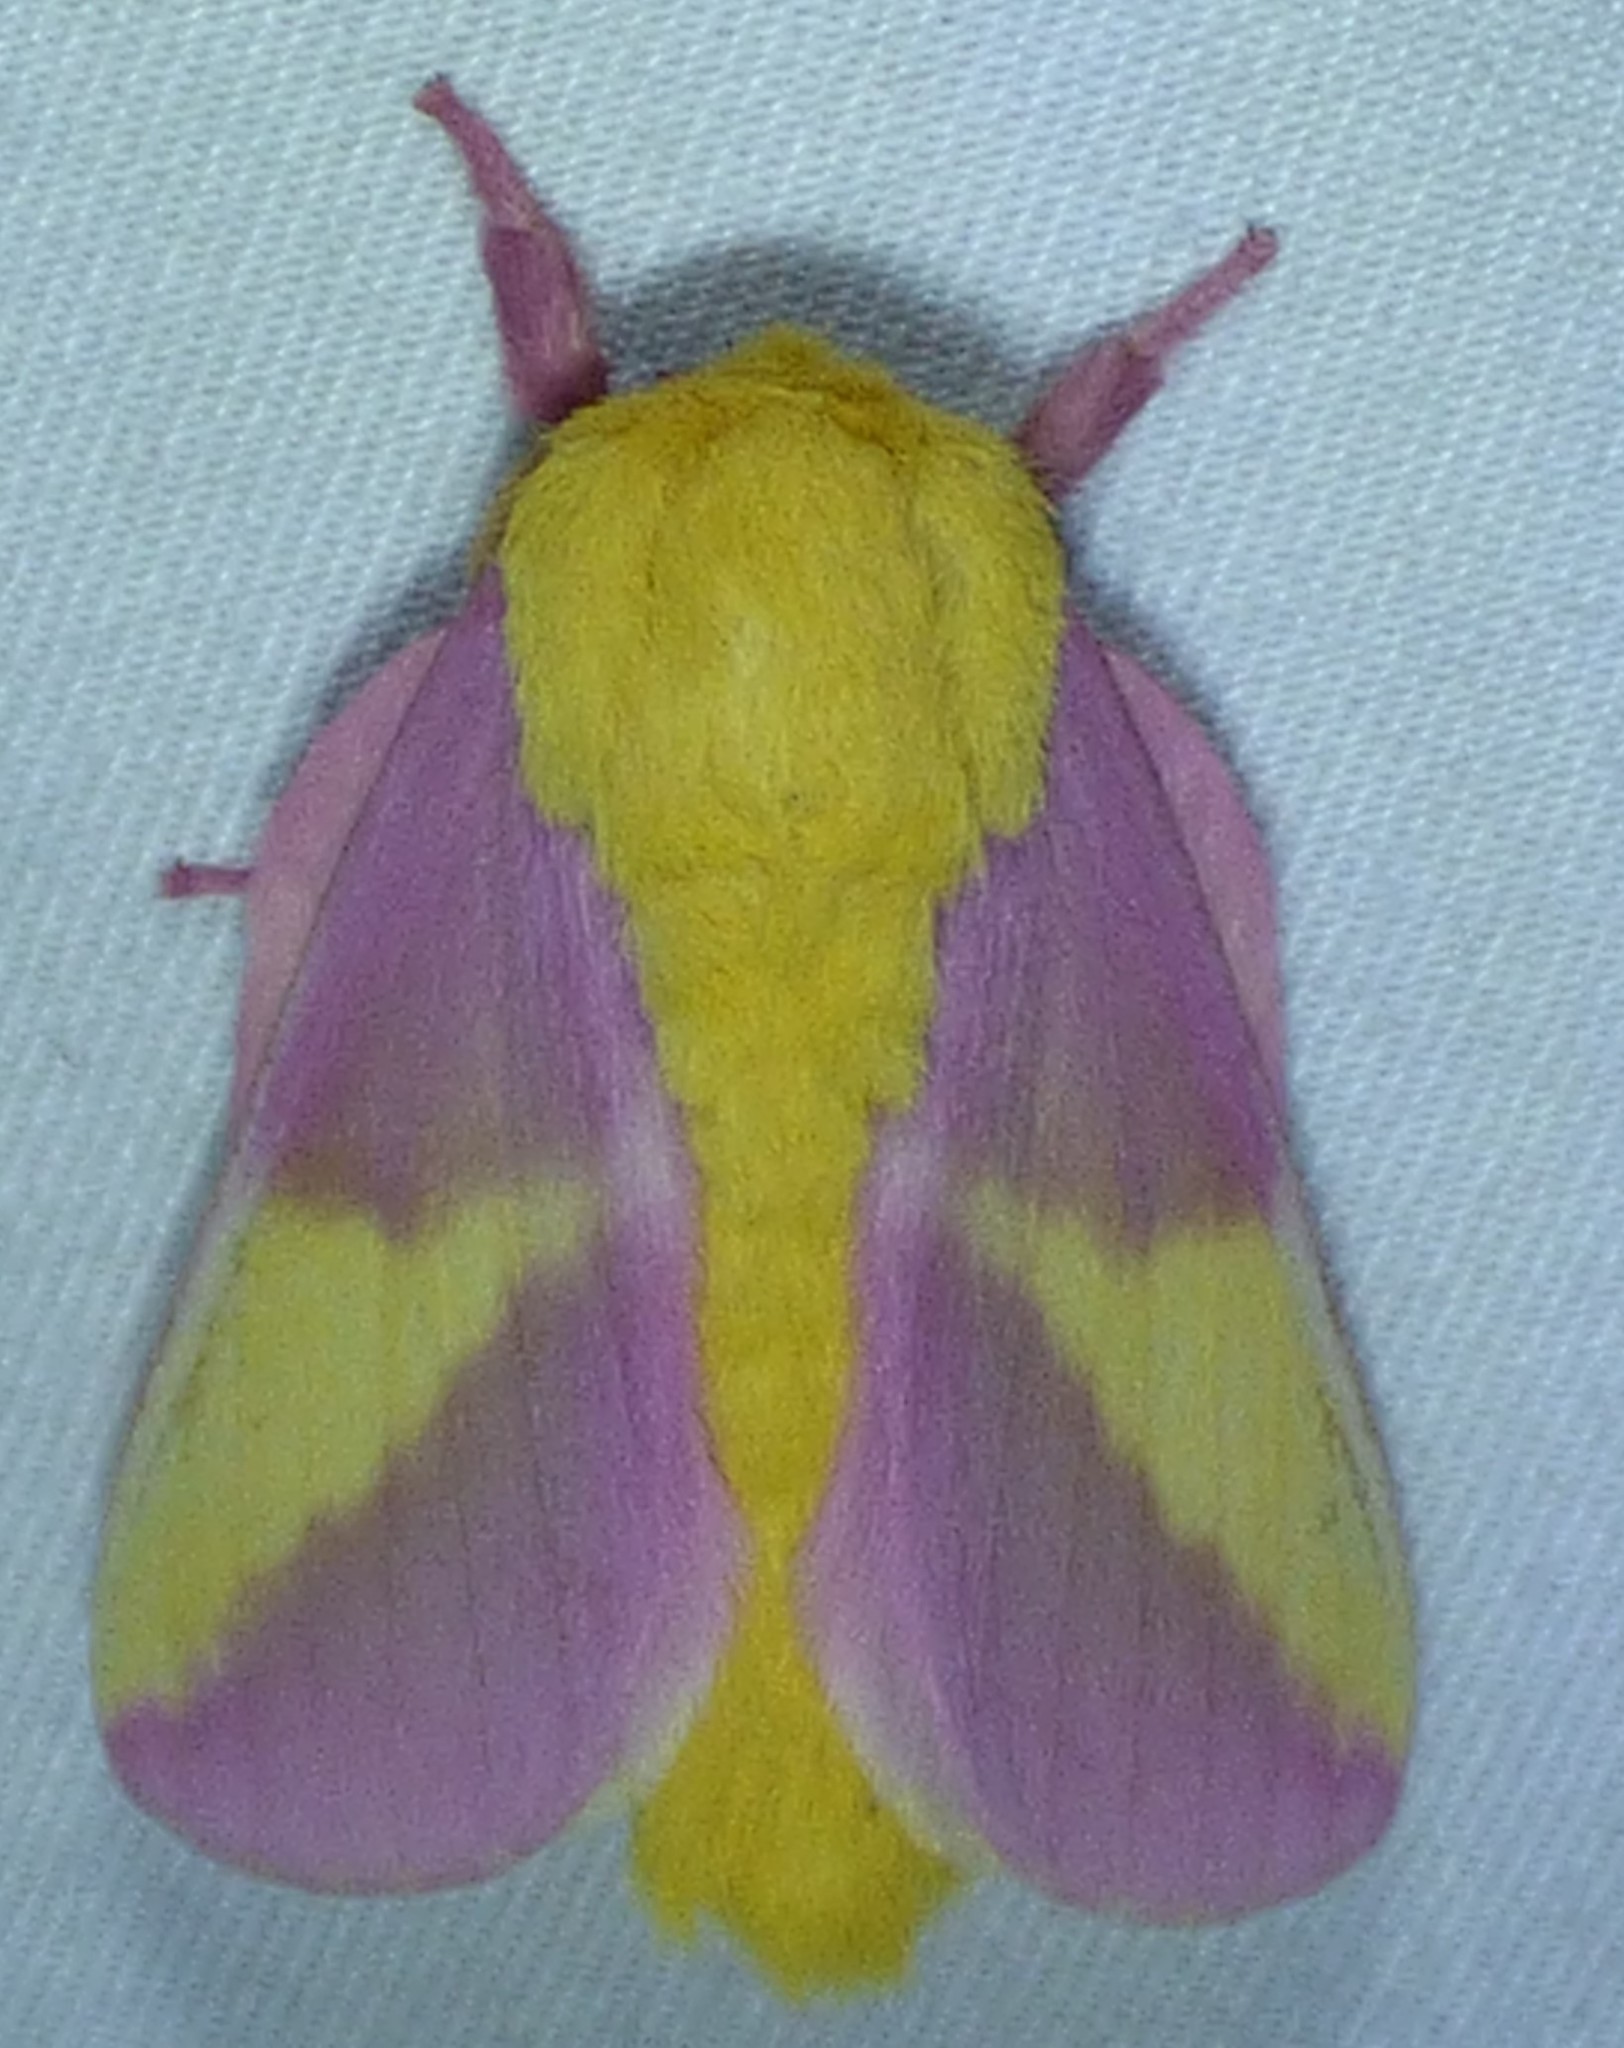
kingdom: Animalia
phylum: Arthropoda
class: Insecta
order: Lepidoptera
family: Saturniidae
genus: Dryocampa
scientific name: Dryocampa rubicunda
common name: Rosy maple moth
